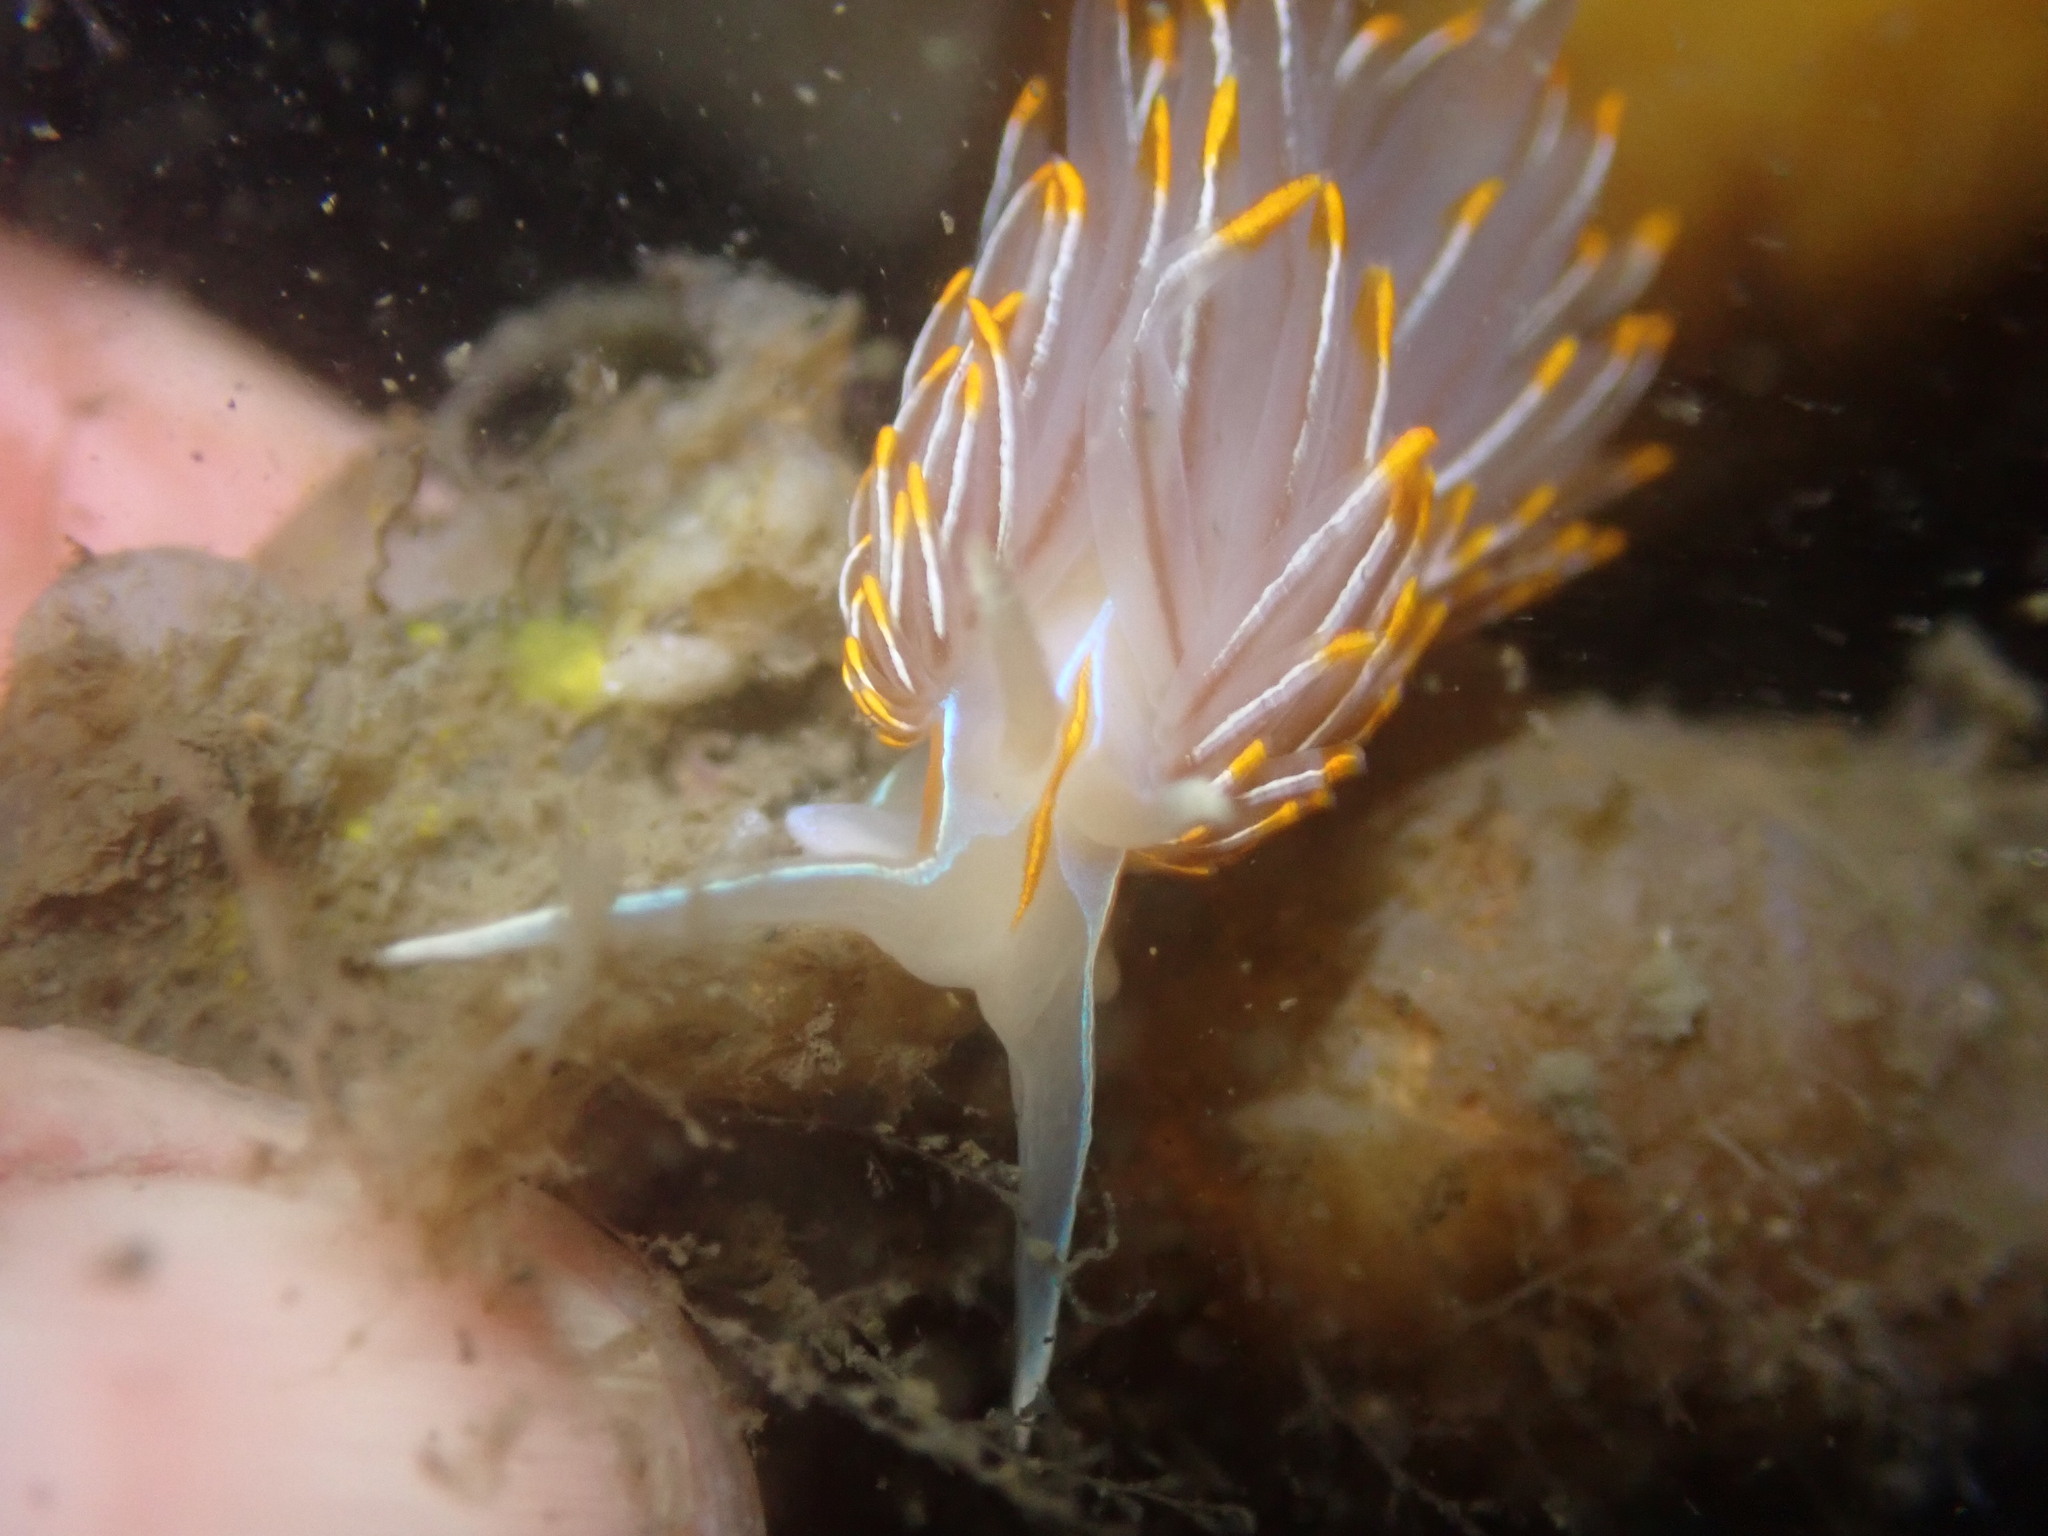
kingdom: Animalia
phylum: Mollusca
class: Gastropoda
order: Nudibranchia
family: Myrrhinidae
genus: Hermissenda
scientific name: Hermissenda crassicornis
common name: Hermissenda
